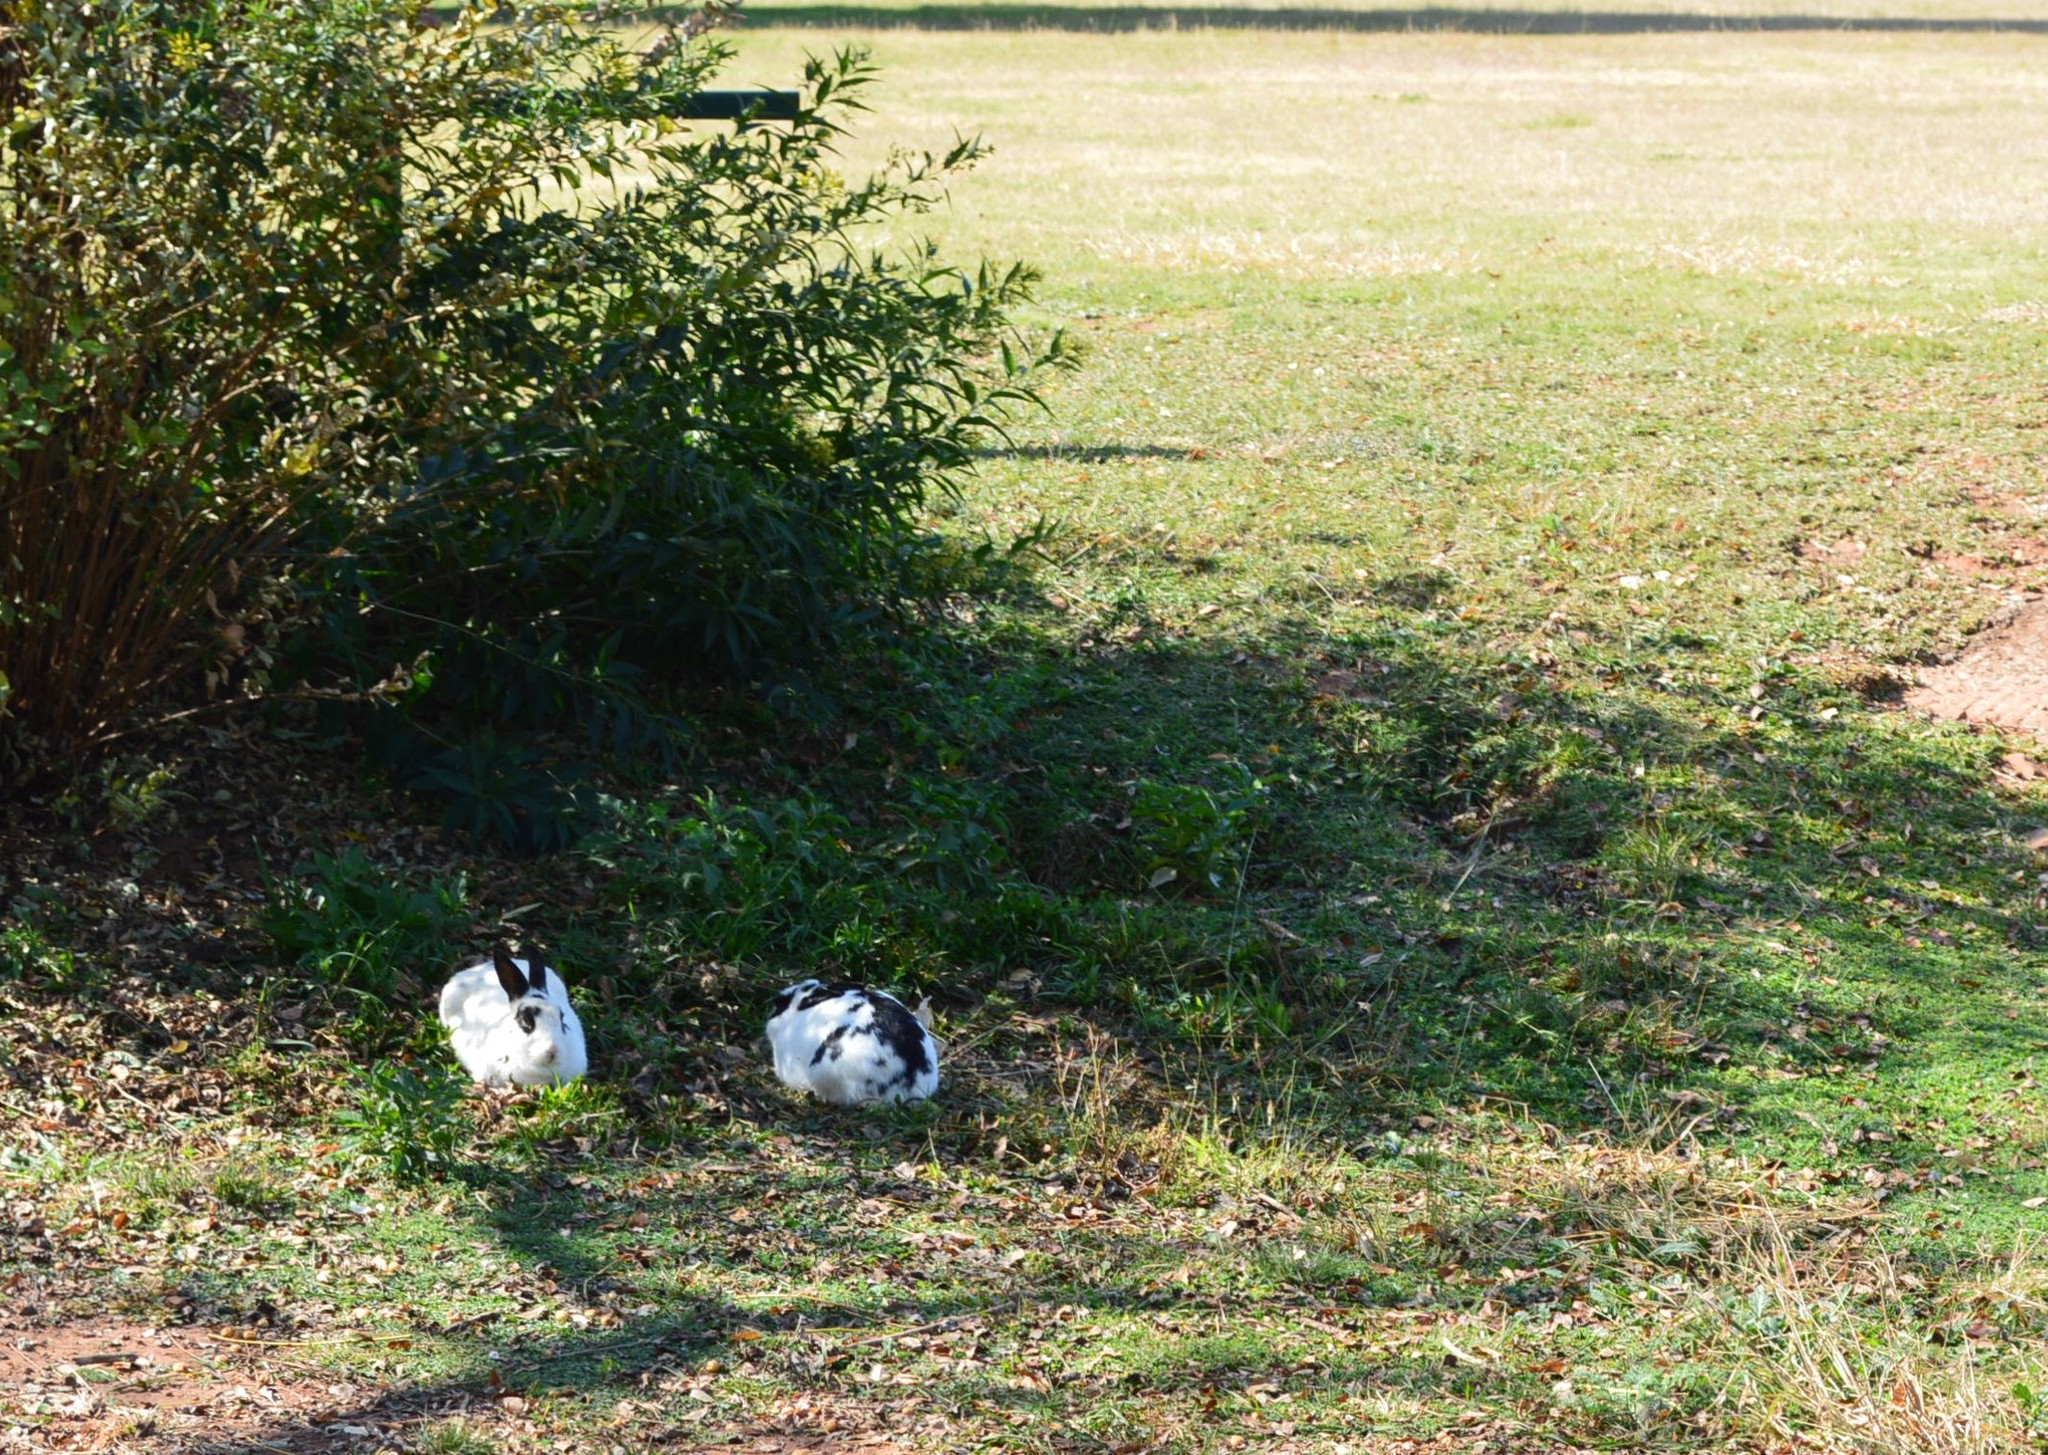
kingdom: Animalia
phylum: Chordata
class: Mammalia
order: Lagomorpha
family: Leporidae
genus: Oryctolagus
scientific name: Oryctolagus cuniculus
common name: European rabbit
